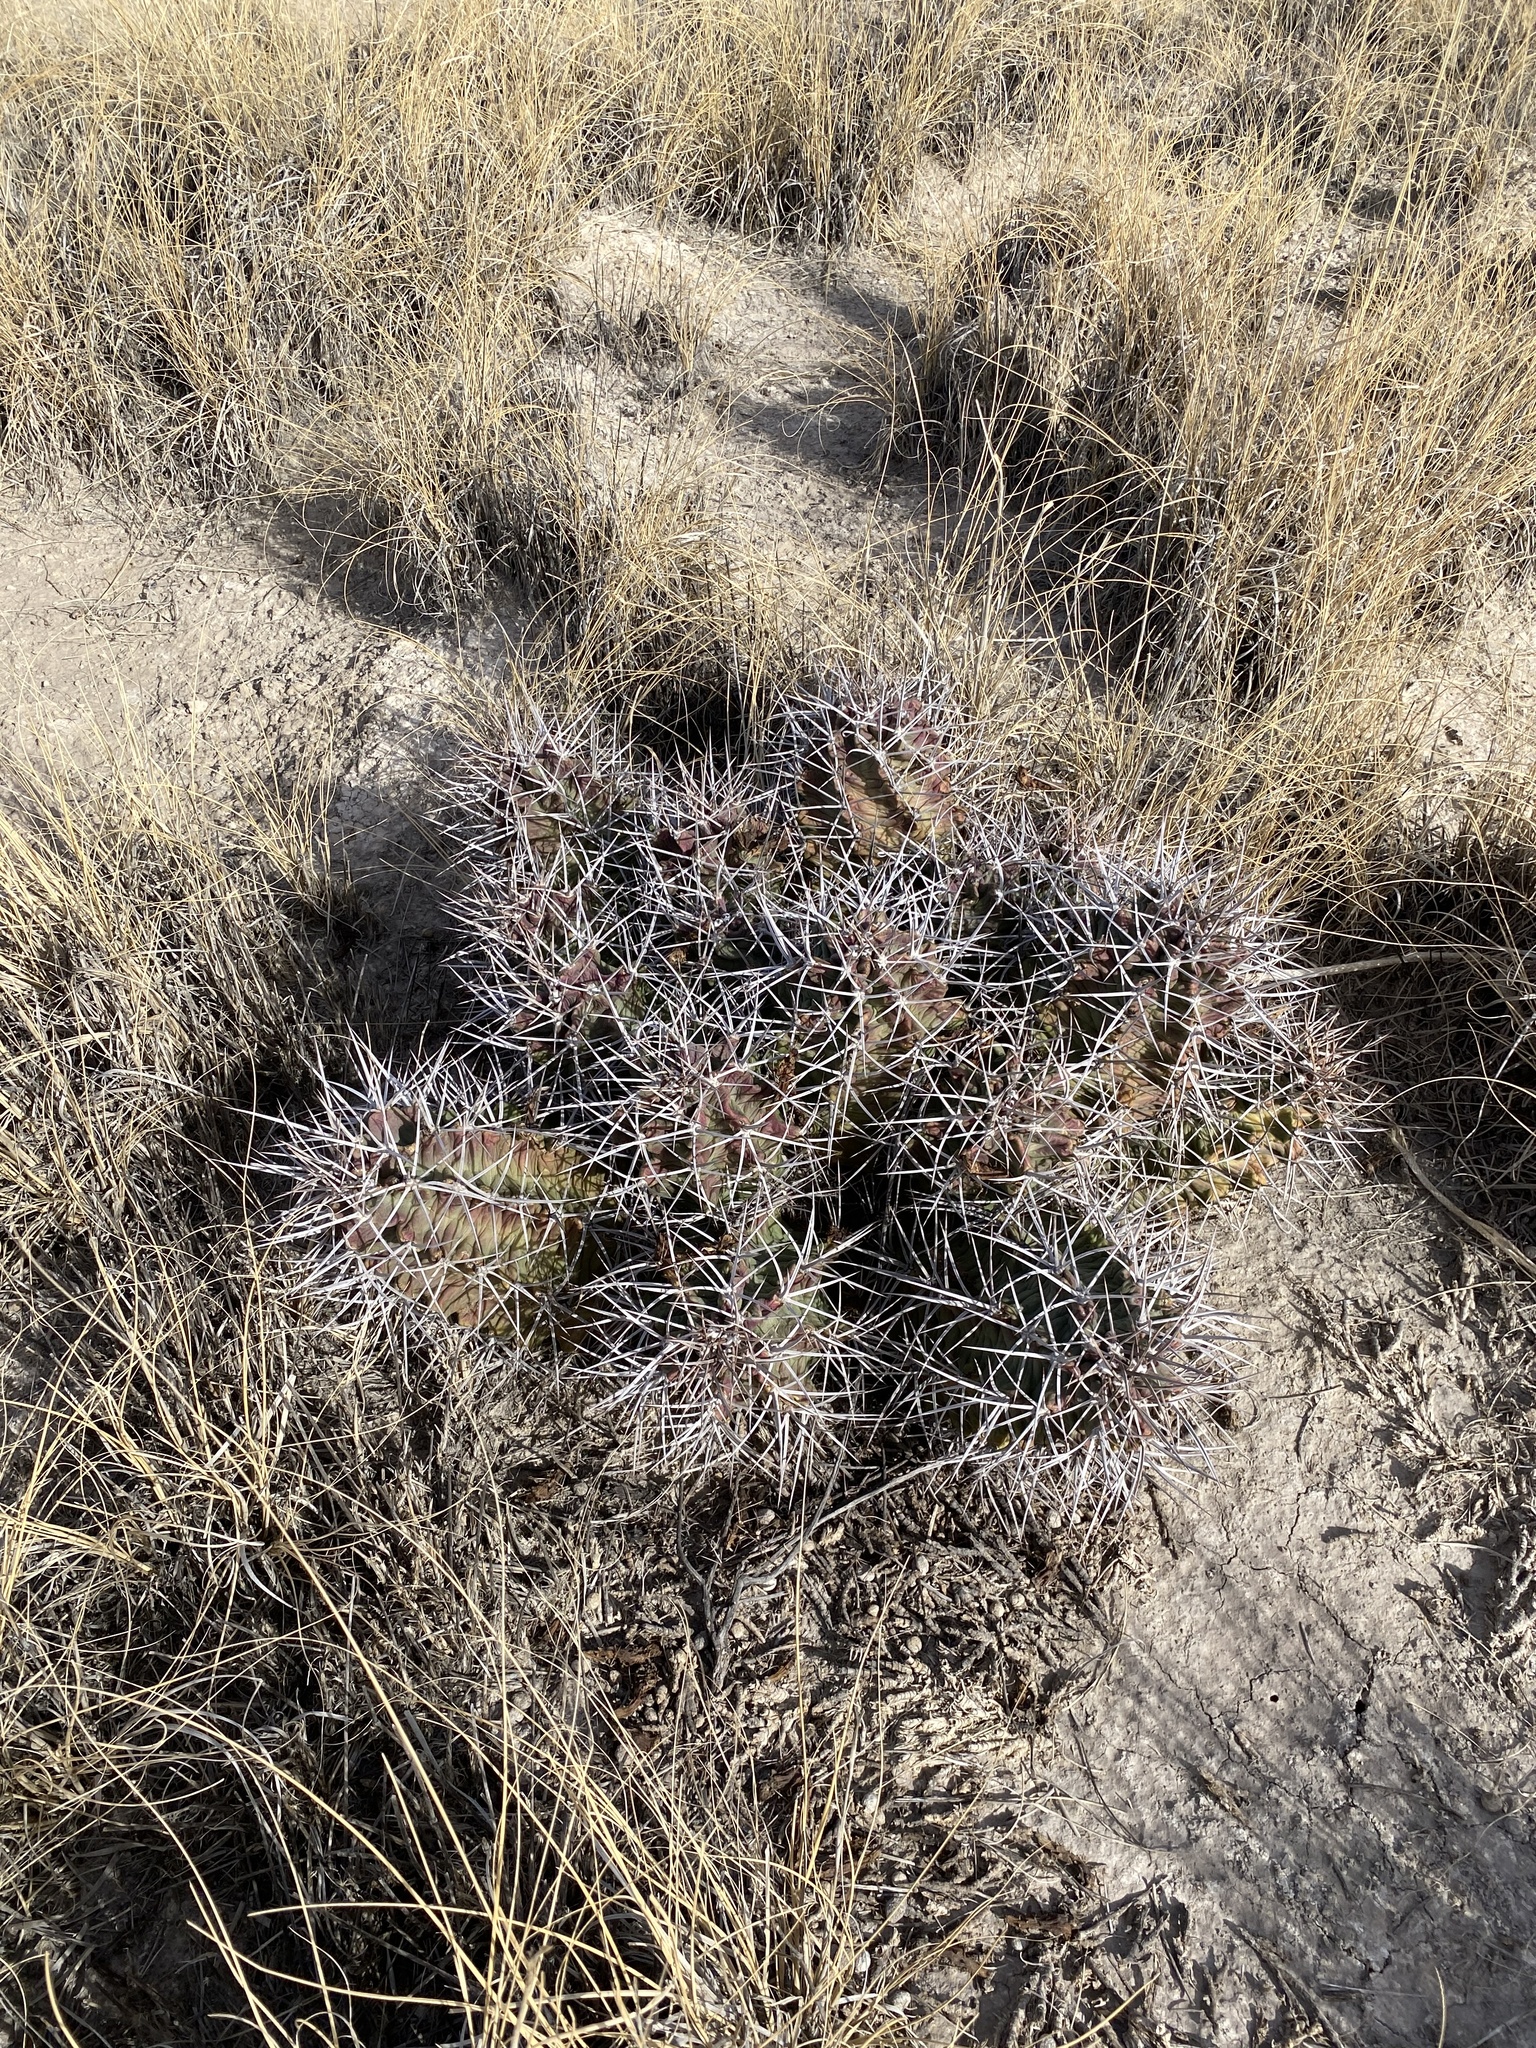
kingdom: Plantae
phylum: Tracheophyta
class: Magnoliopsida
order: Caryophyllales
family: Cactaceae
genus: Echinocereus
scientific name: Echinocereus triglochidiatus
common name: Claretcup hedgehog
